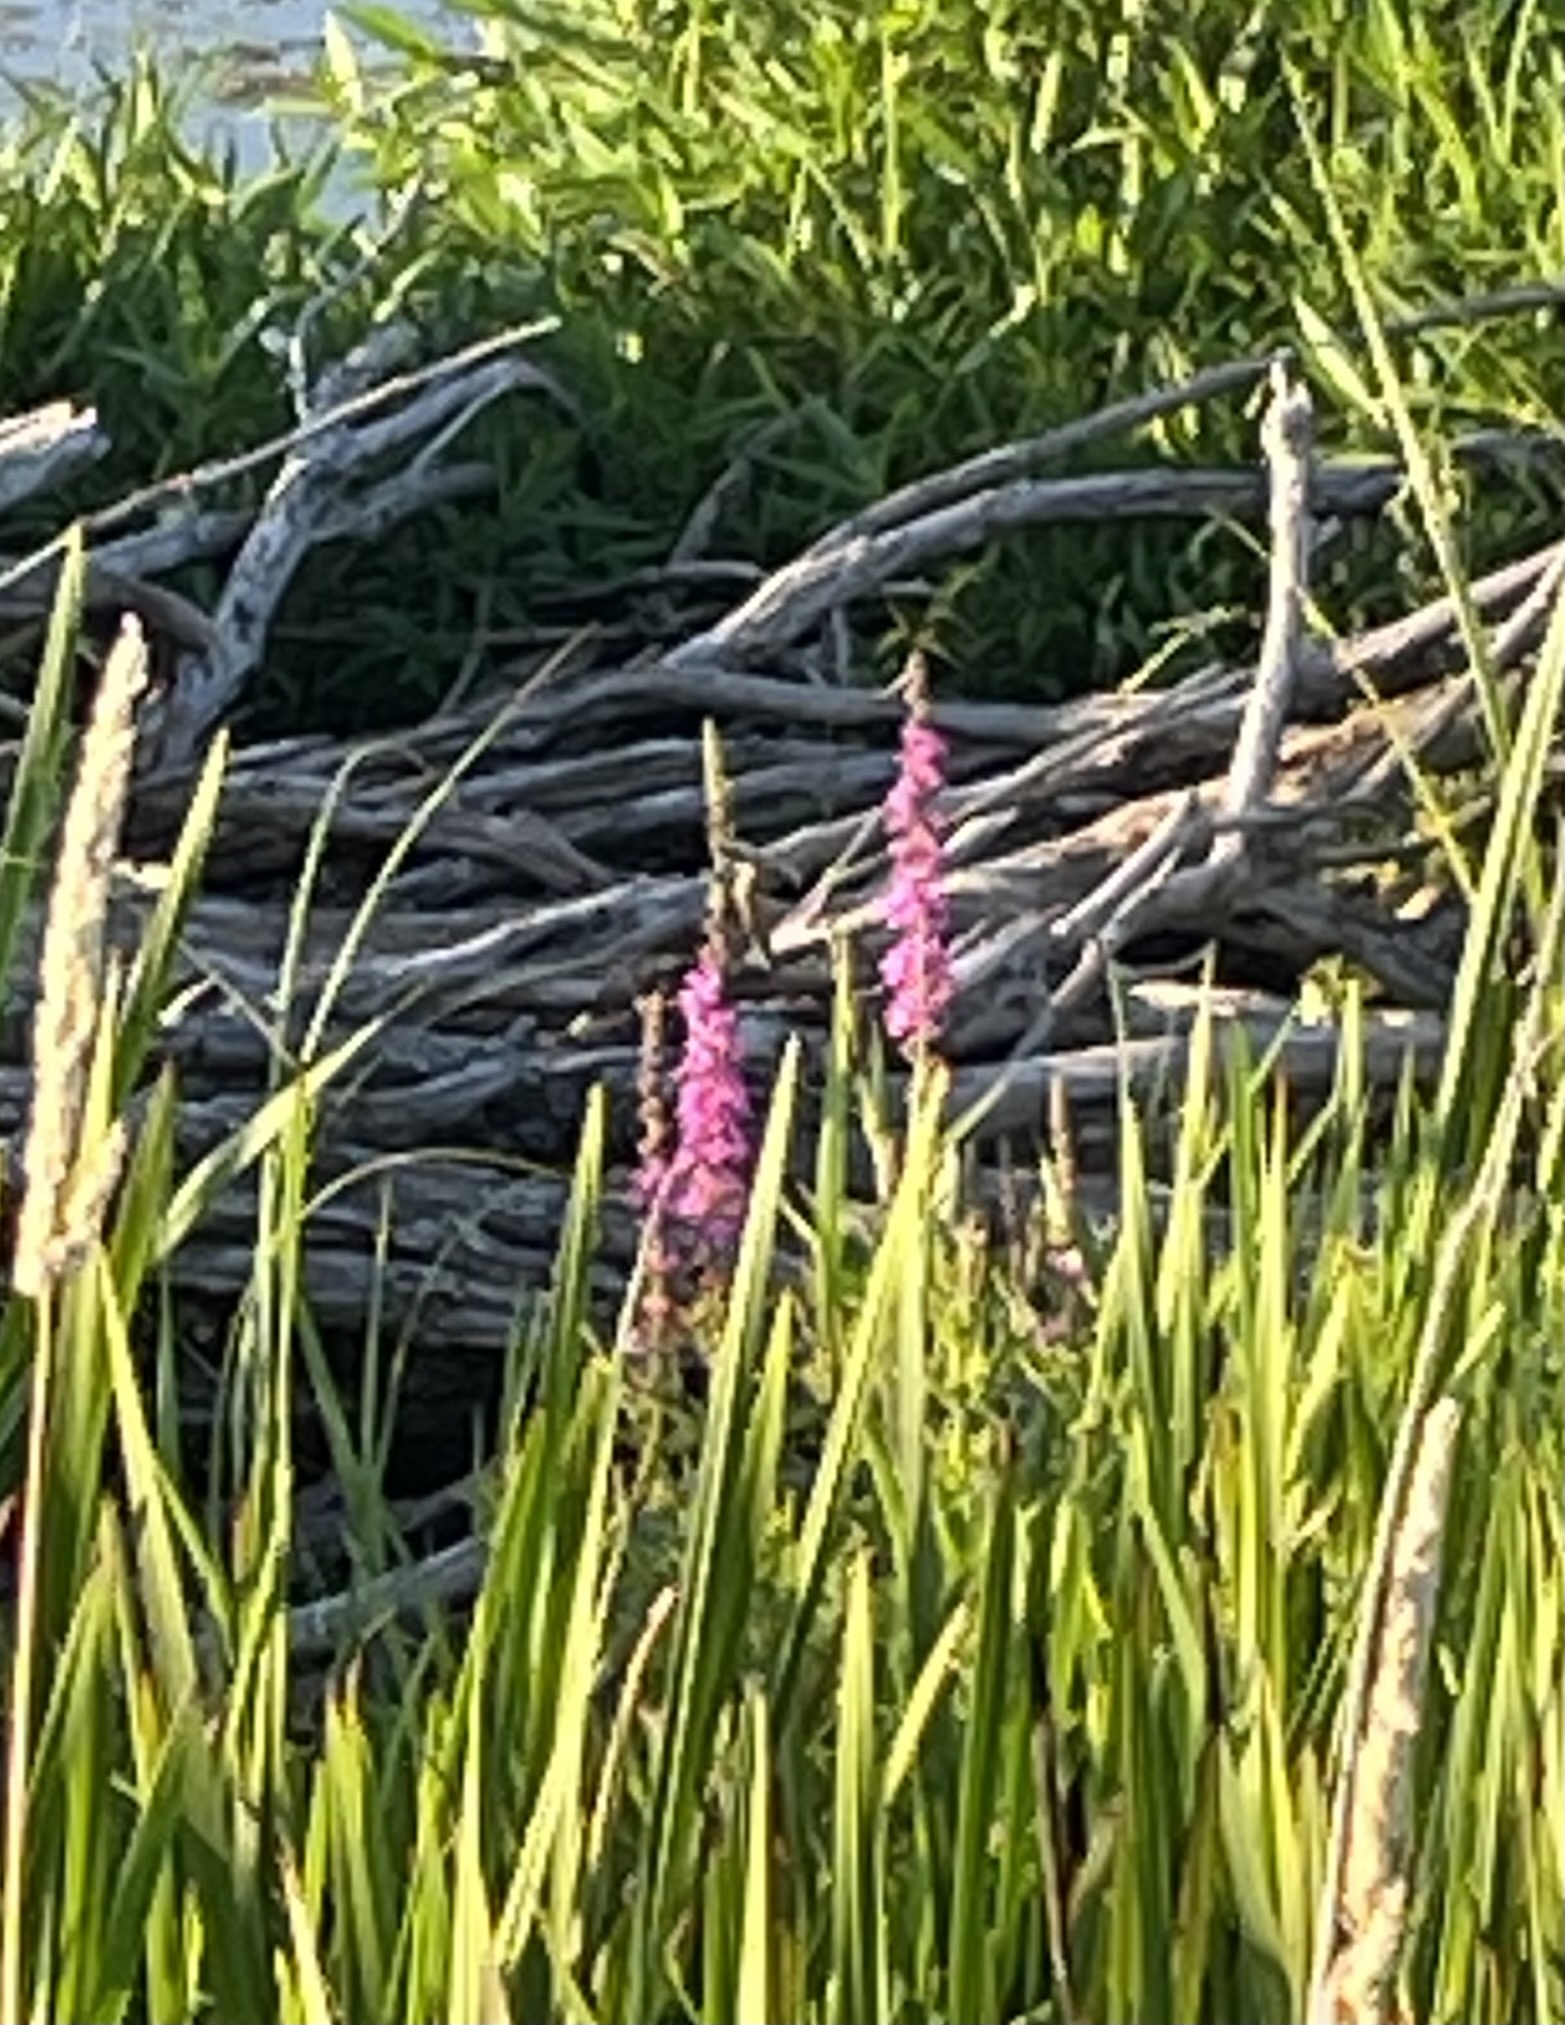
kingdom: Plantae
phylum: Tracheophyta
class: Magnoliopsida
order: Myrtales
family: Lythraceae
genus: Lythrum
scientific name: Lythrum salicaria
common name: Purple loosestrife
